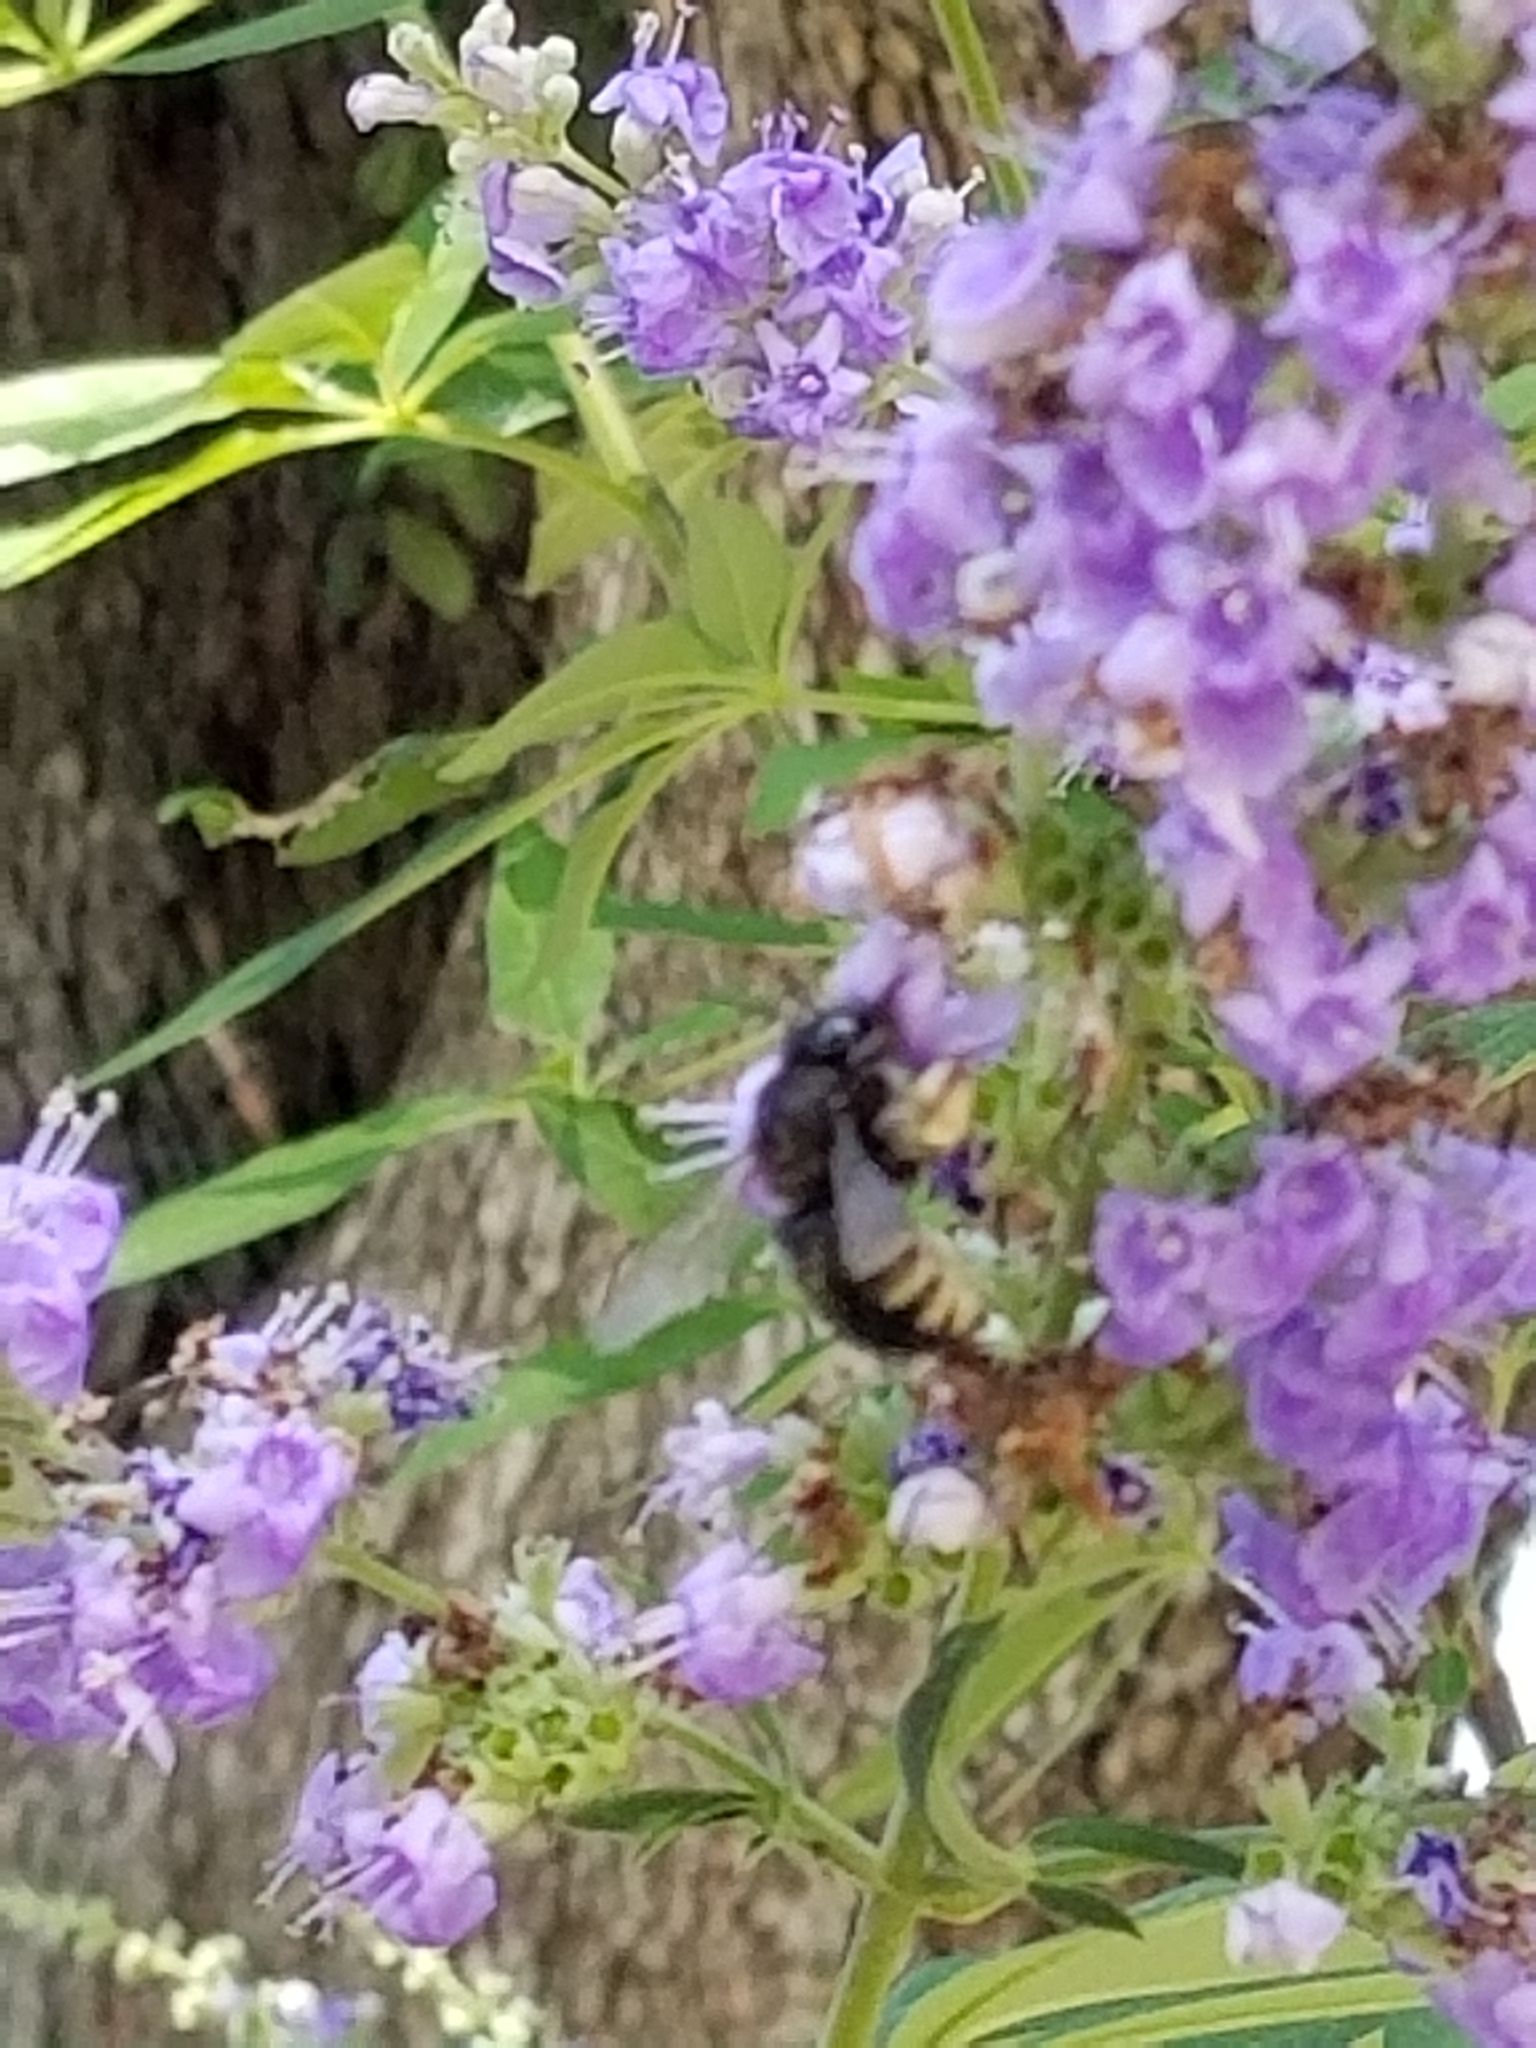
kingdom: Animalia
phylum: Arthropoda
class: Insecta
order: Hymenoptera
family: Apidae
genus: Xylocopa
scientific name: Xylocopa tabaniformis
